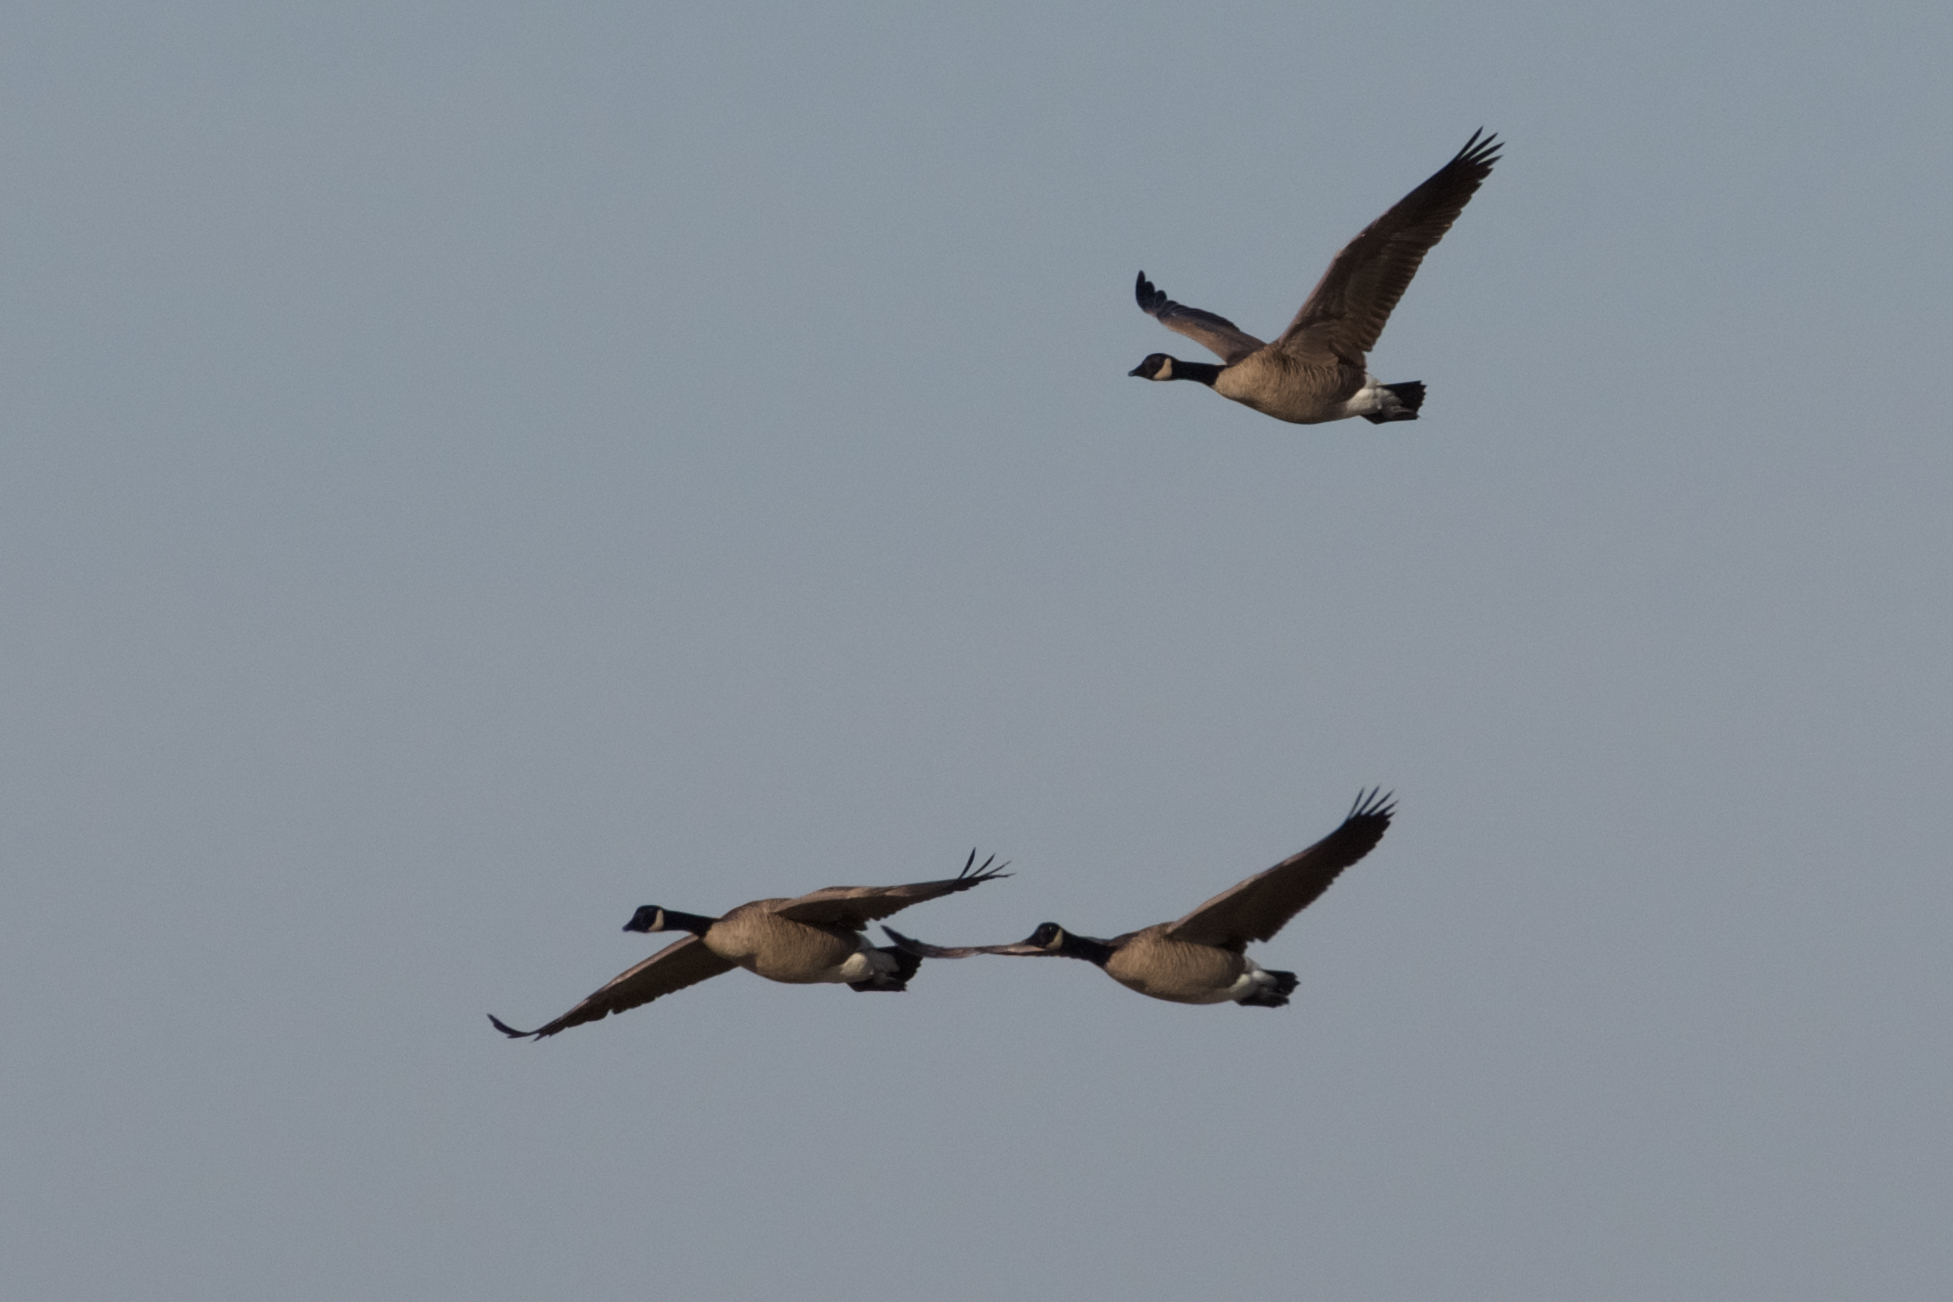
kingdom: Animalia
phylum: Chordata
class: Aves
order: Anseriformes
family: Anatidae
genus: Branta
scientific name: Branta canadensis
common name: Canada goose
